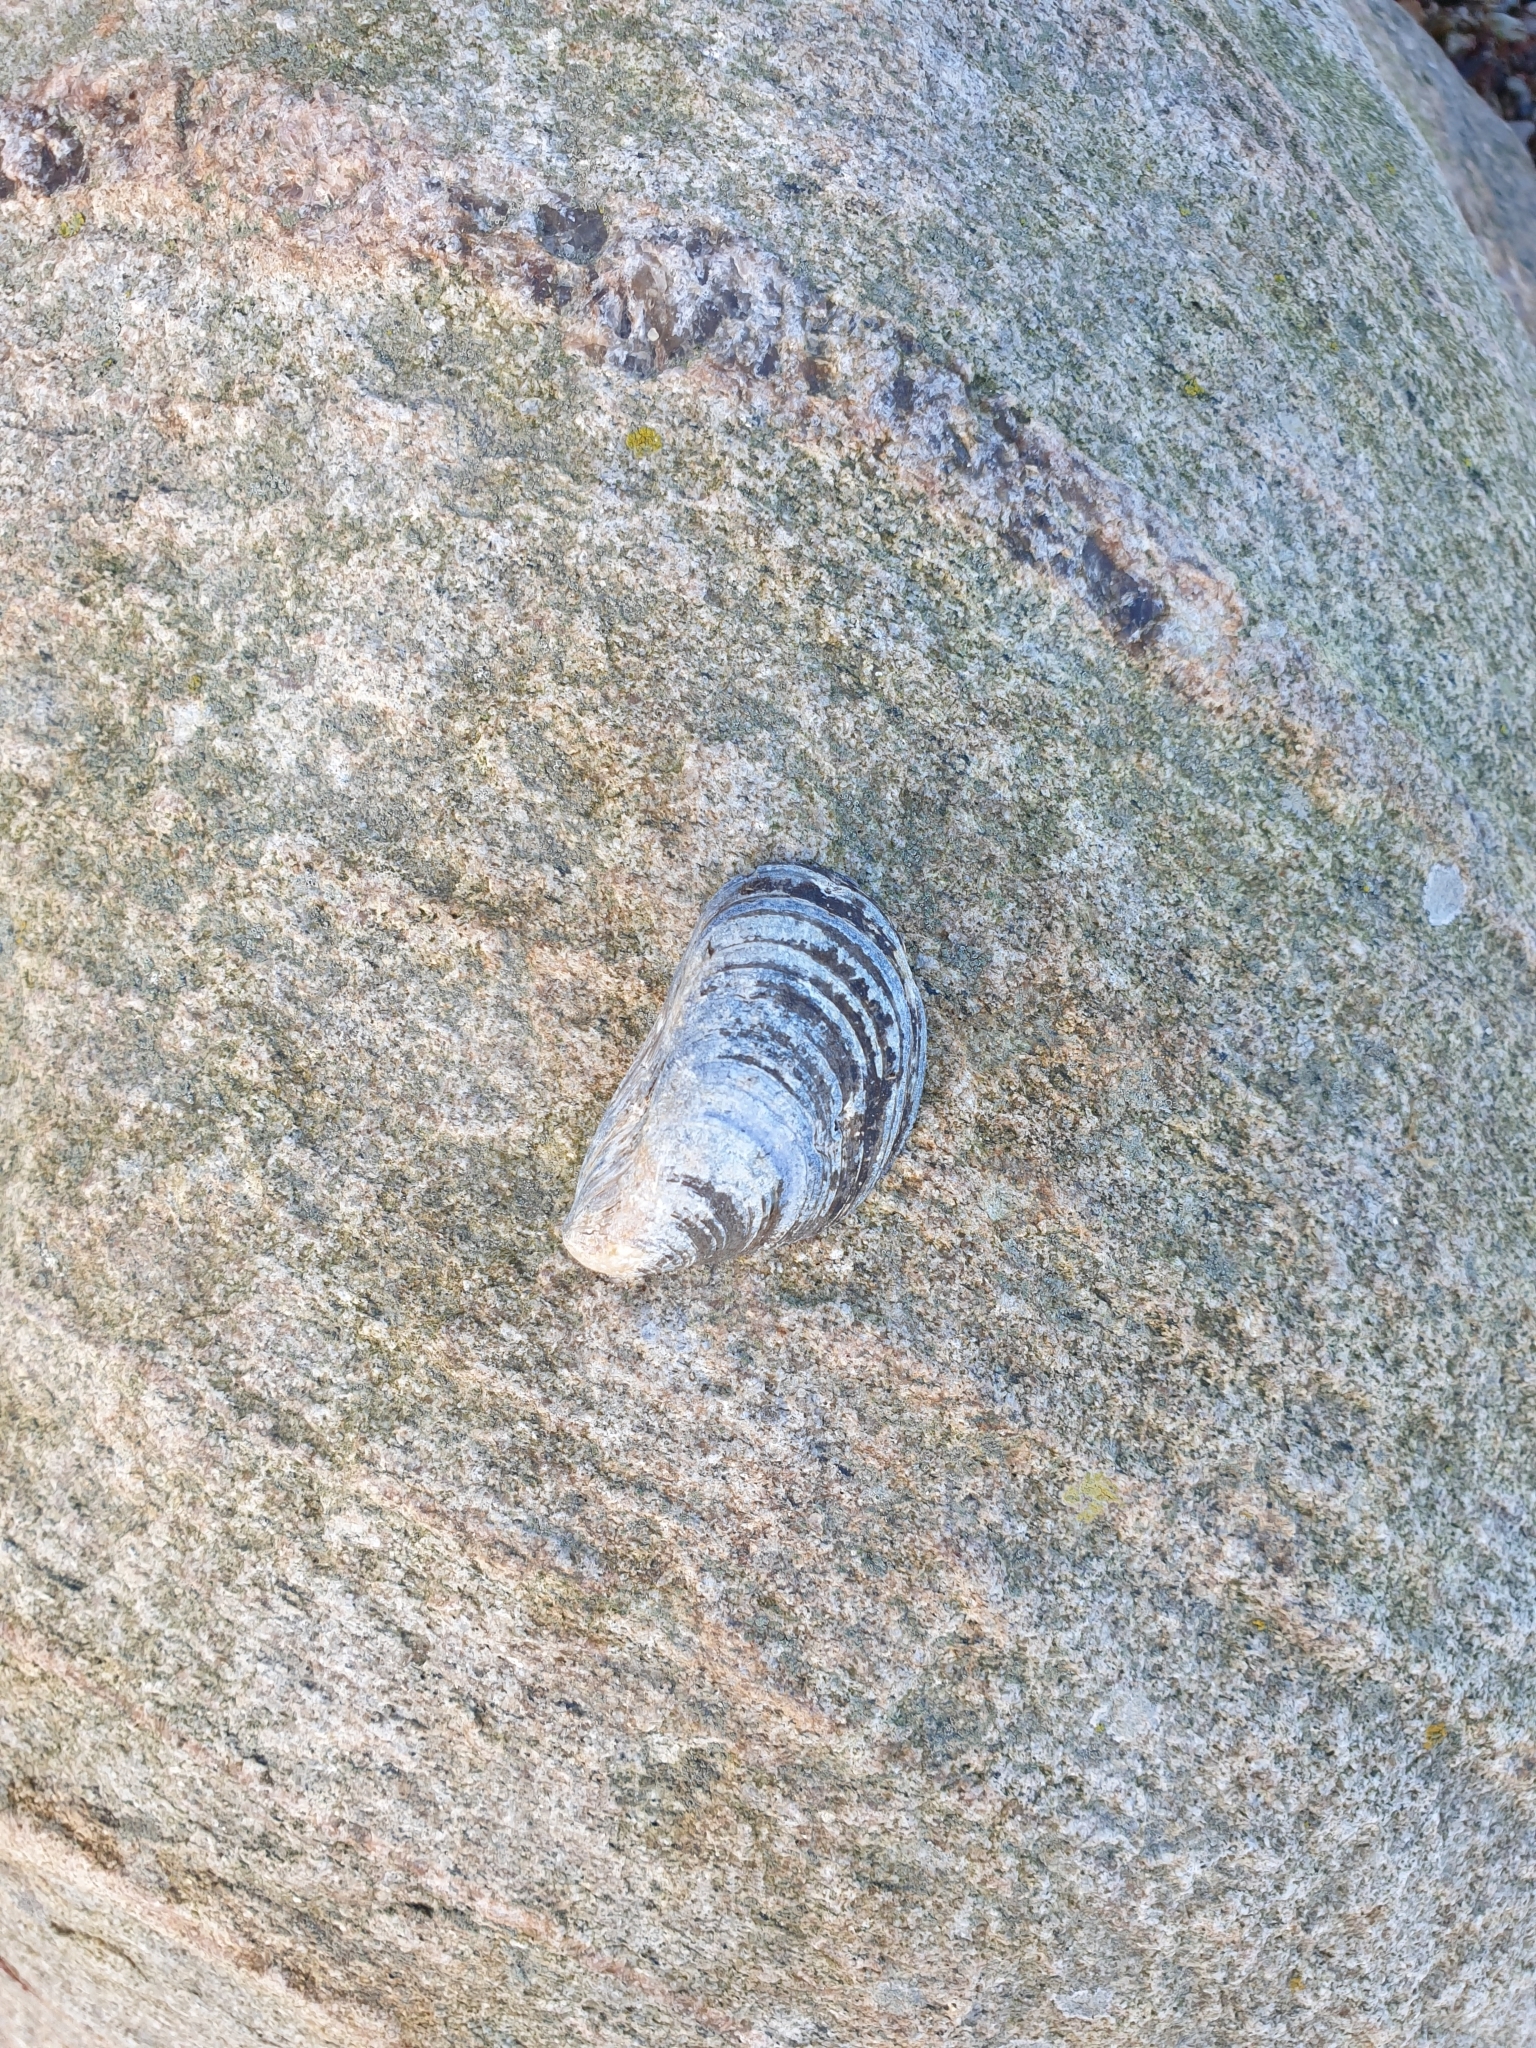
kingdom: Animalia
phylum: Mollusca
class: Bivalvia
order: Mytilida
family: Mytilidae
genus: Mytilus
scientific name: Mytilus edulis
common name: Blue mussel
